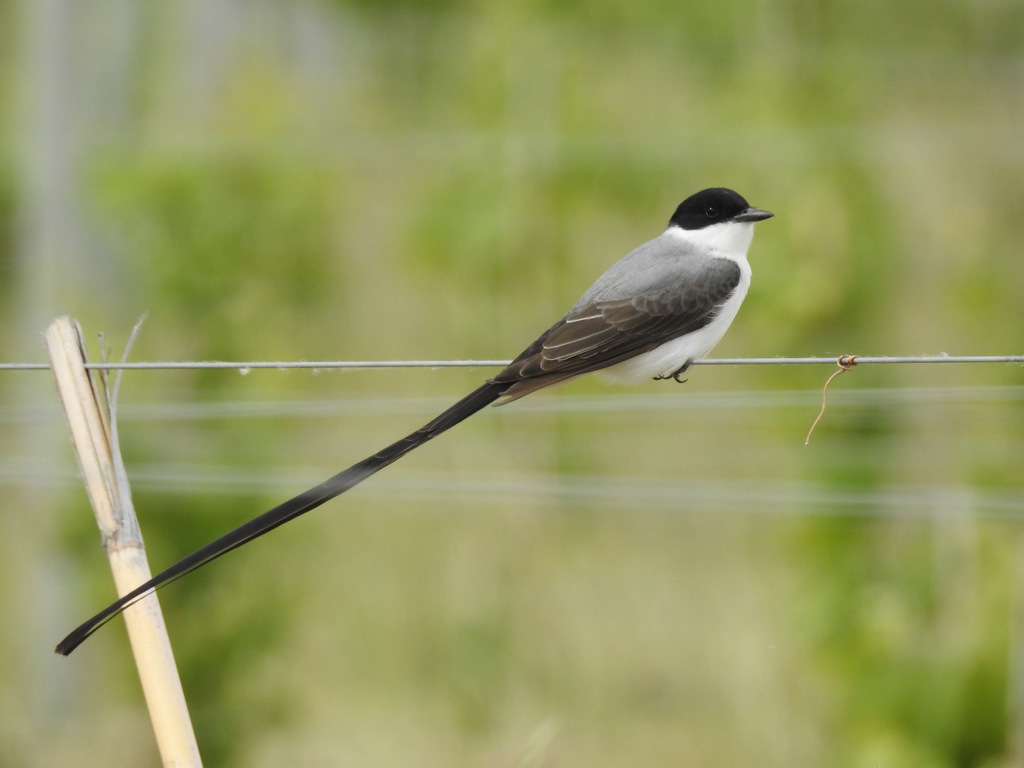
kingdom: Animalia
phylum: Chordata
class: Aves
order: Passeriformes
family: Tyrannidae
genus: Tyrannus
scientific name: Tyrannus savana
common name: Fork-tailed flycatcher
